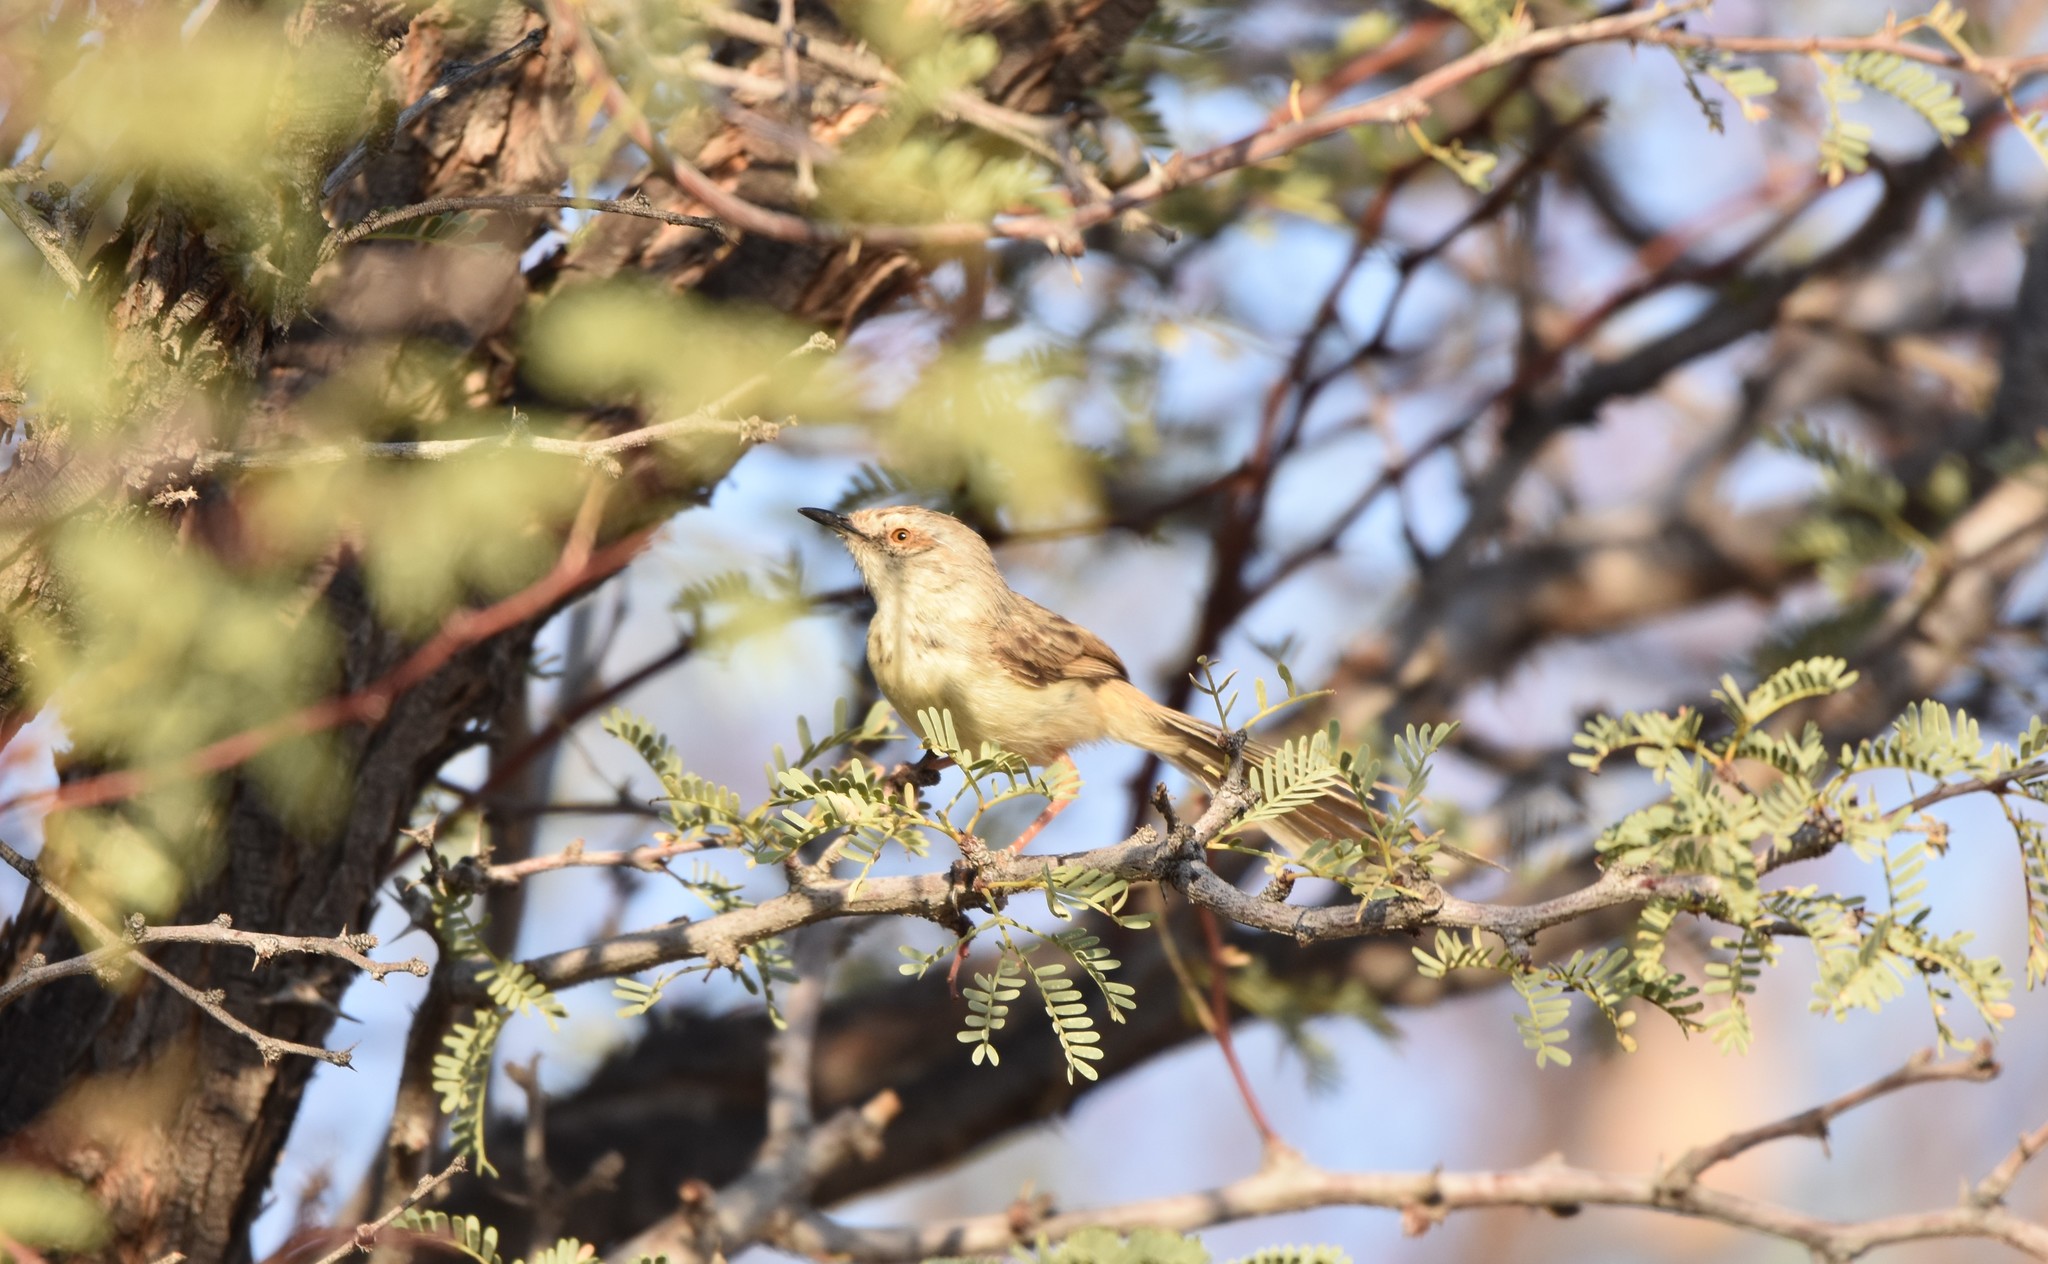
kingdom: Animalia
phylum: Chordata
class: Aves
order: Passeriformes
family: Cisticolidae
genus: Prinia
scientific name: Prinia flavicans
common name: Black-chested prinia
